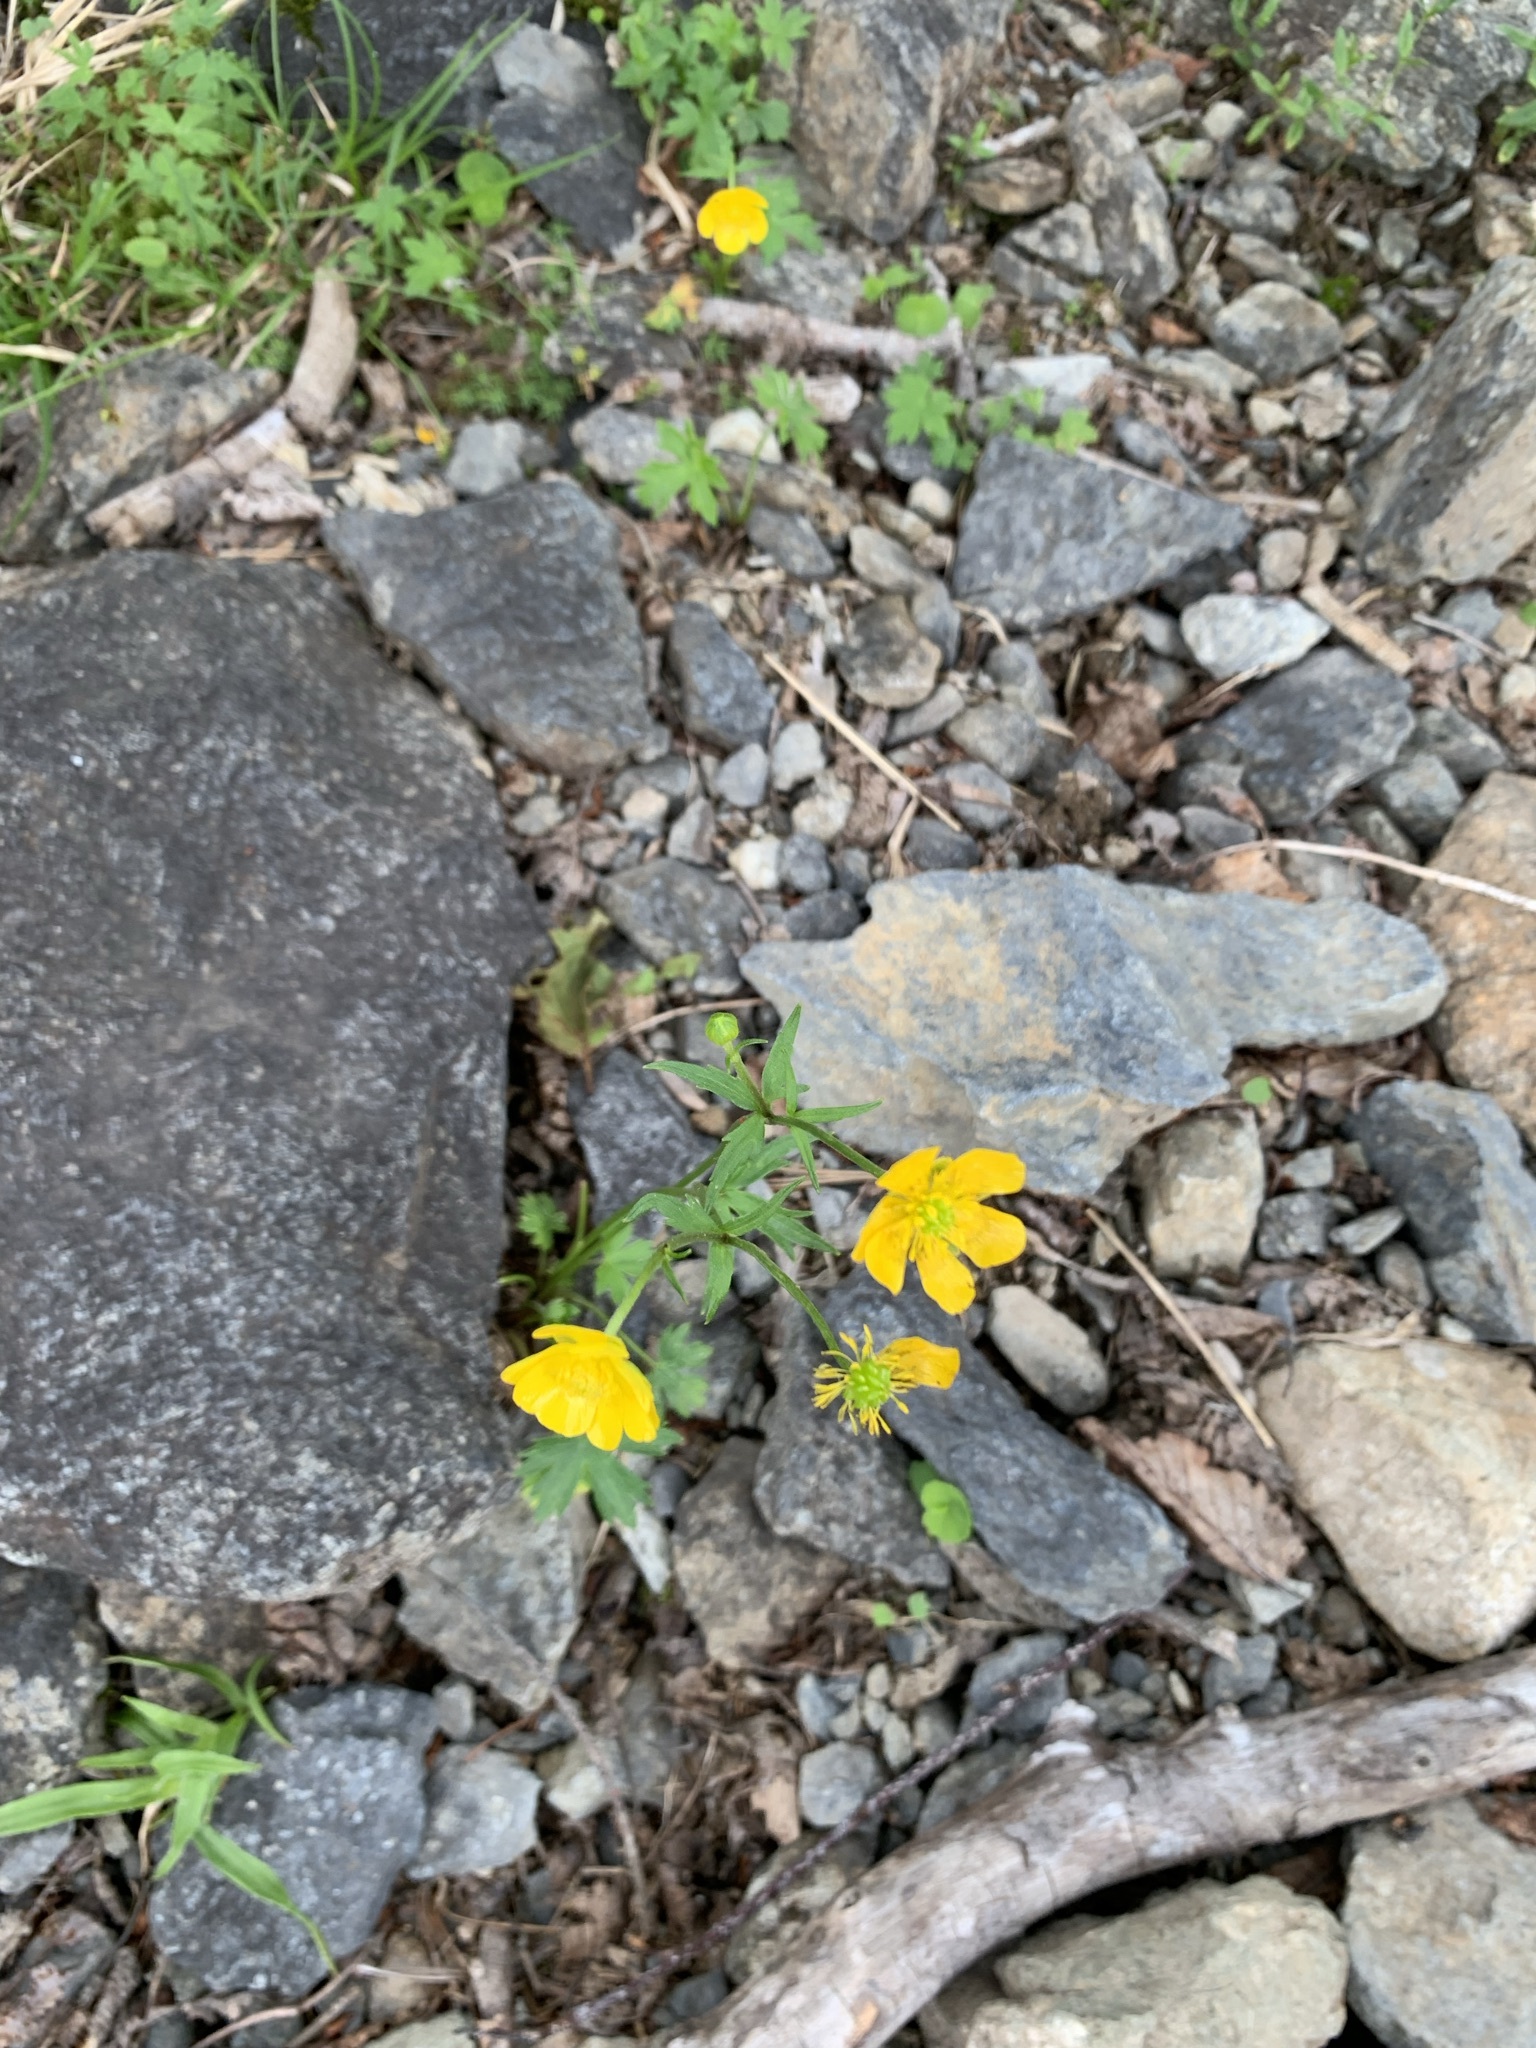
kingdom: Plantae
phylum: Tracheophyta
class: Magnoliopsida
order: Ranunculales
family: Ranunculaceae
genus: Ranunculus
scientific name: Ranunculus acris
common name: Meadow buttercup
